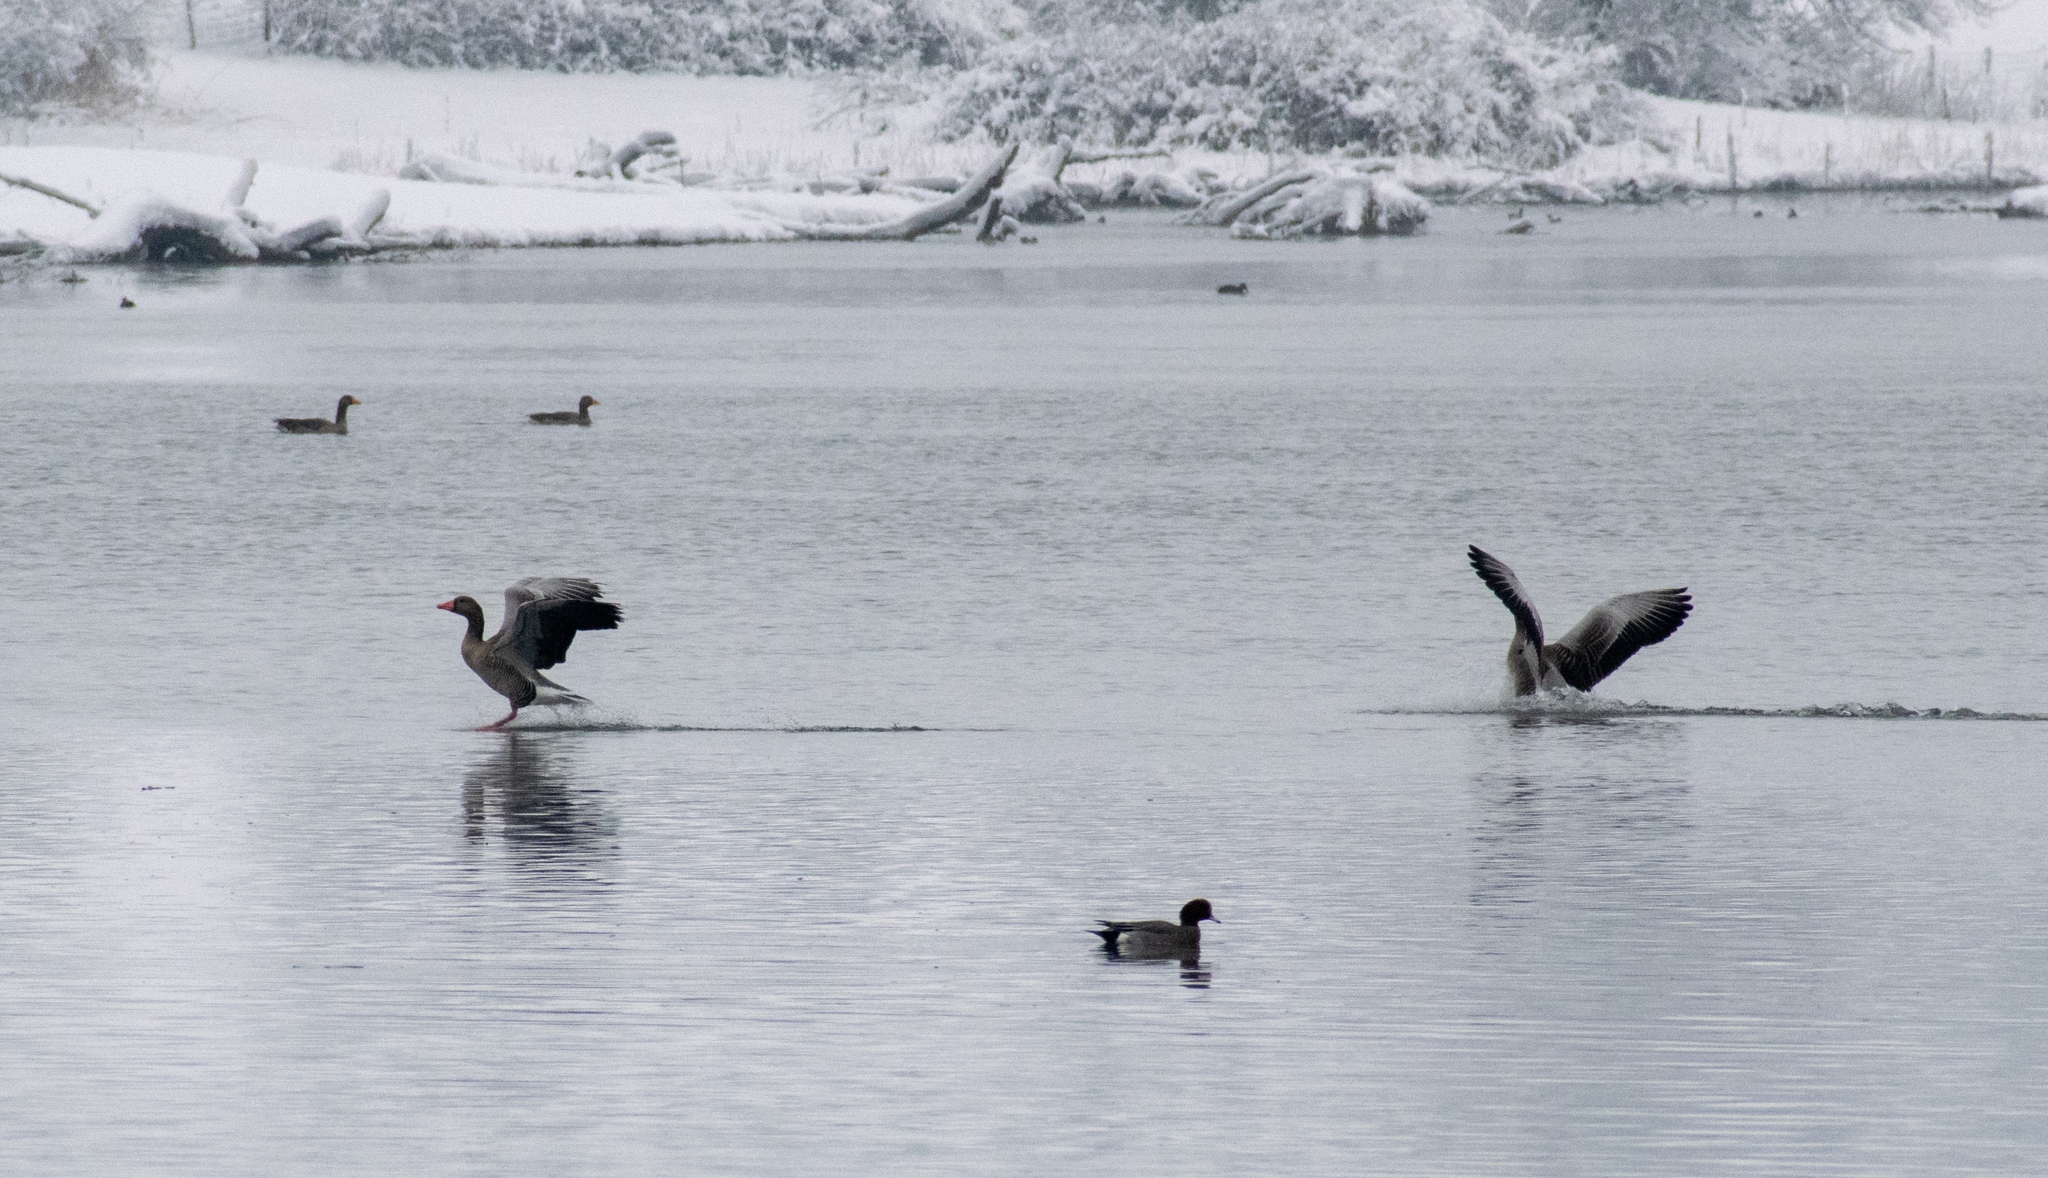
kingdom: Animalia
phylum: Chordata
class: Aves
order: Anseriformes
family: Anatidae
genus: Anser
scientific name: Anser anser
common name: Greylag goose
